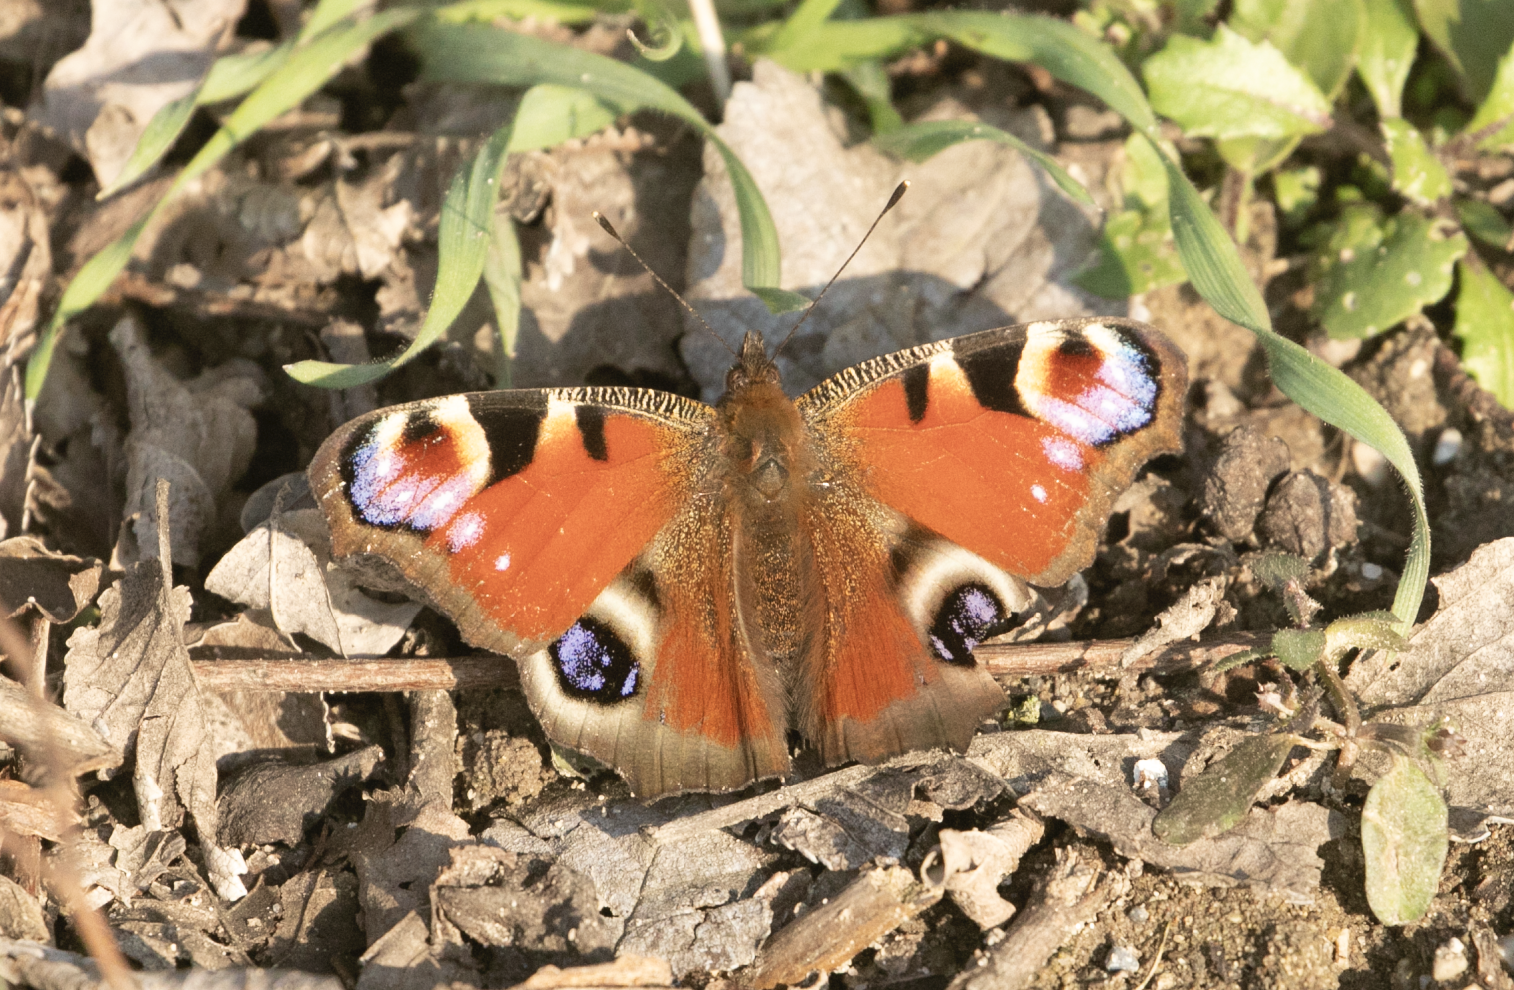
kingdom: Animalia
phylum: Arthropoda
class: Insecta
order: Lepidoptera
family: Nymphalidae
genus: Aglais
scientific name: Aglais io
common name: Peacock
